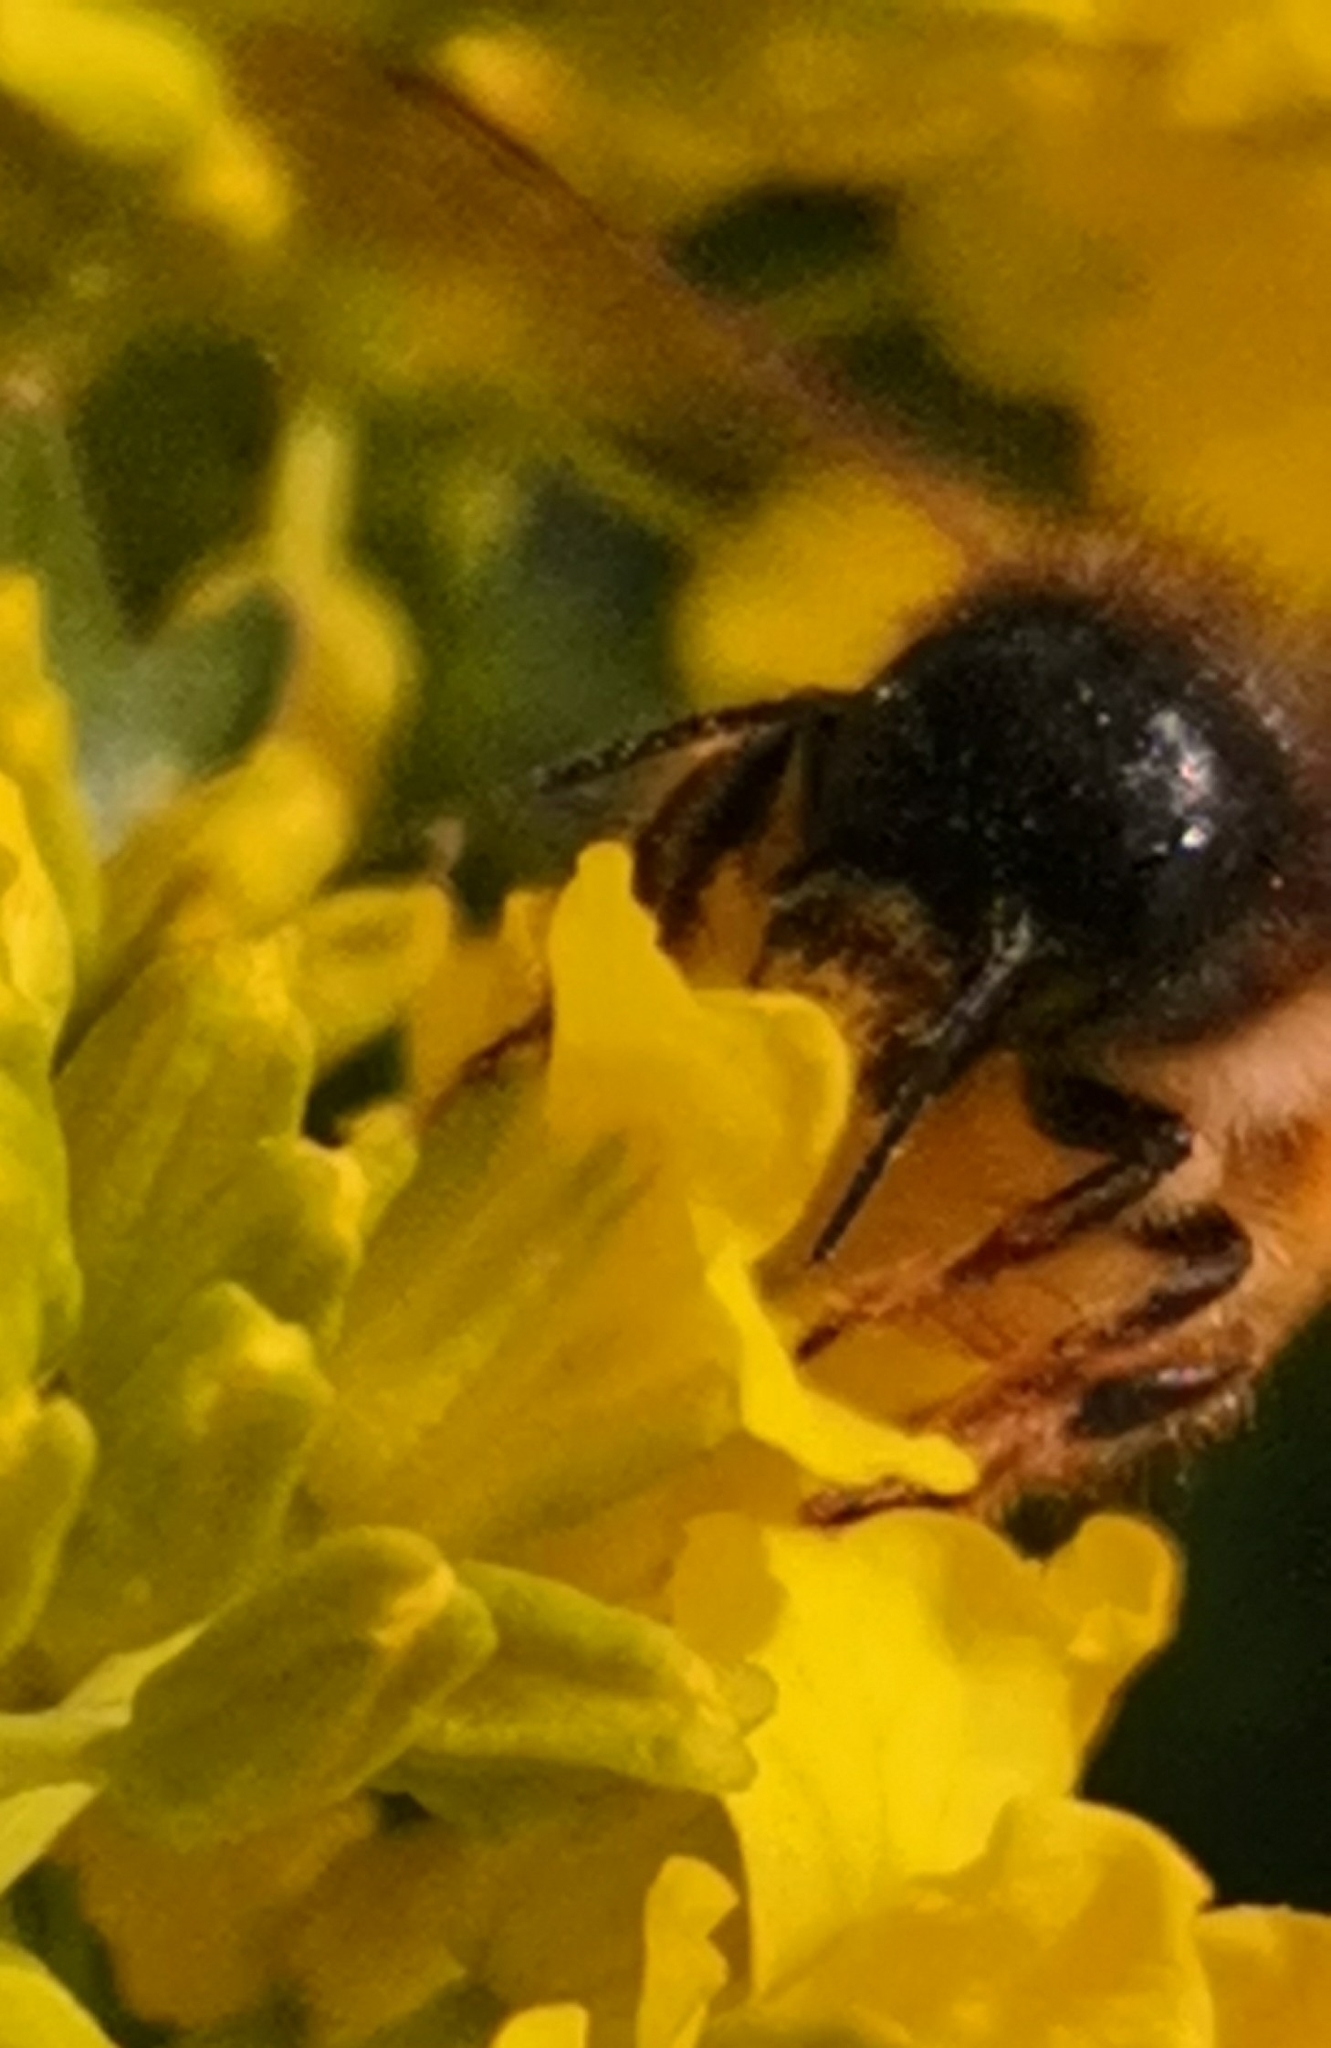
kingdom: Animalia
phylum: Arthropoda
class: Insecta
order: Hymenoptera
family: Megachilidae
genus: Osmia
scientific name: Osmia bicornis
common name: Red mason bee
